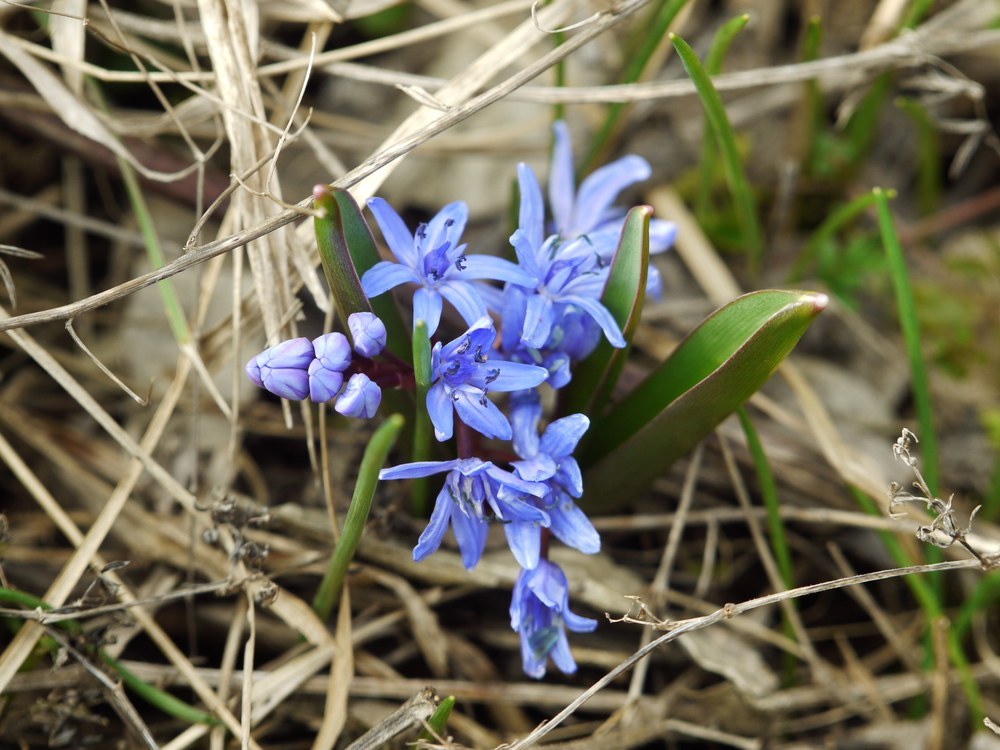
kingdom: Plantae
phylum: Tracheophyta
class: Liliopsida
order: Asparagales
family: Asparagaceae
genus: Scilla
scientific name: Scilla bifolia
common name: Alpine squill
